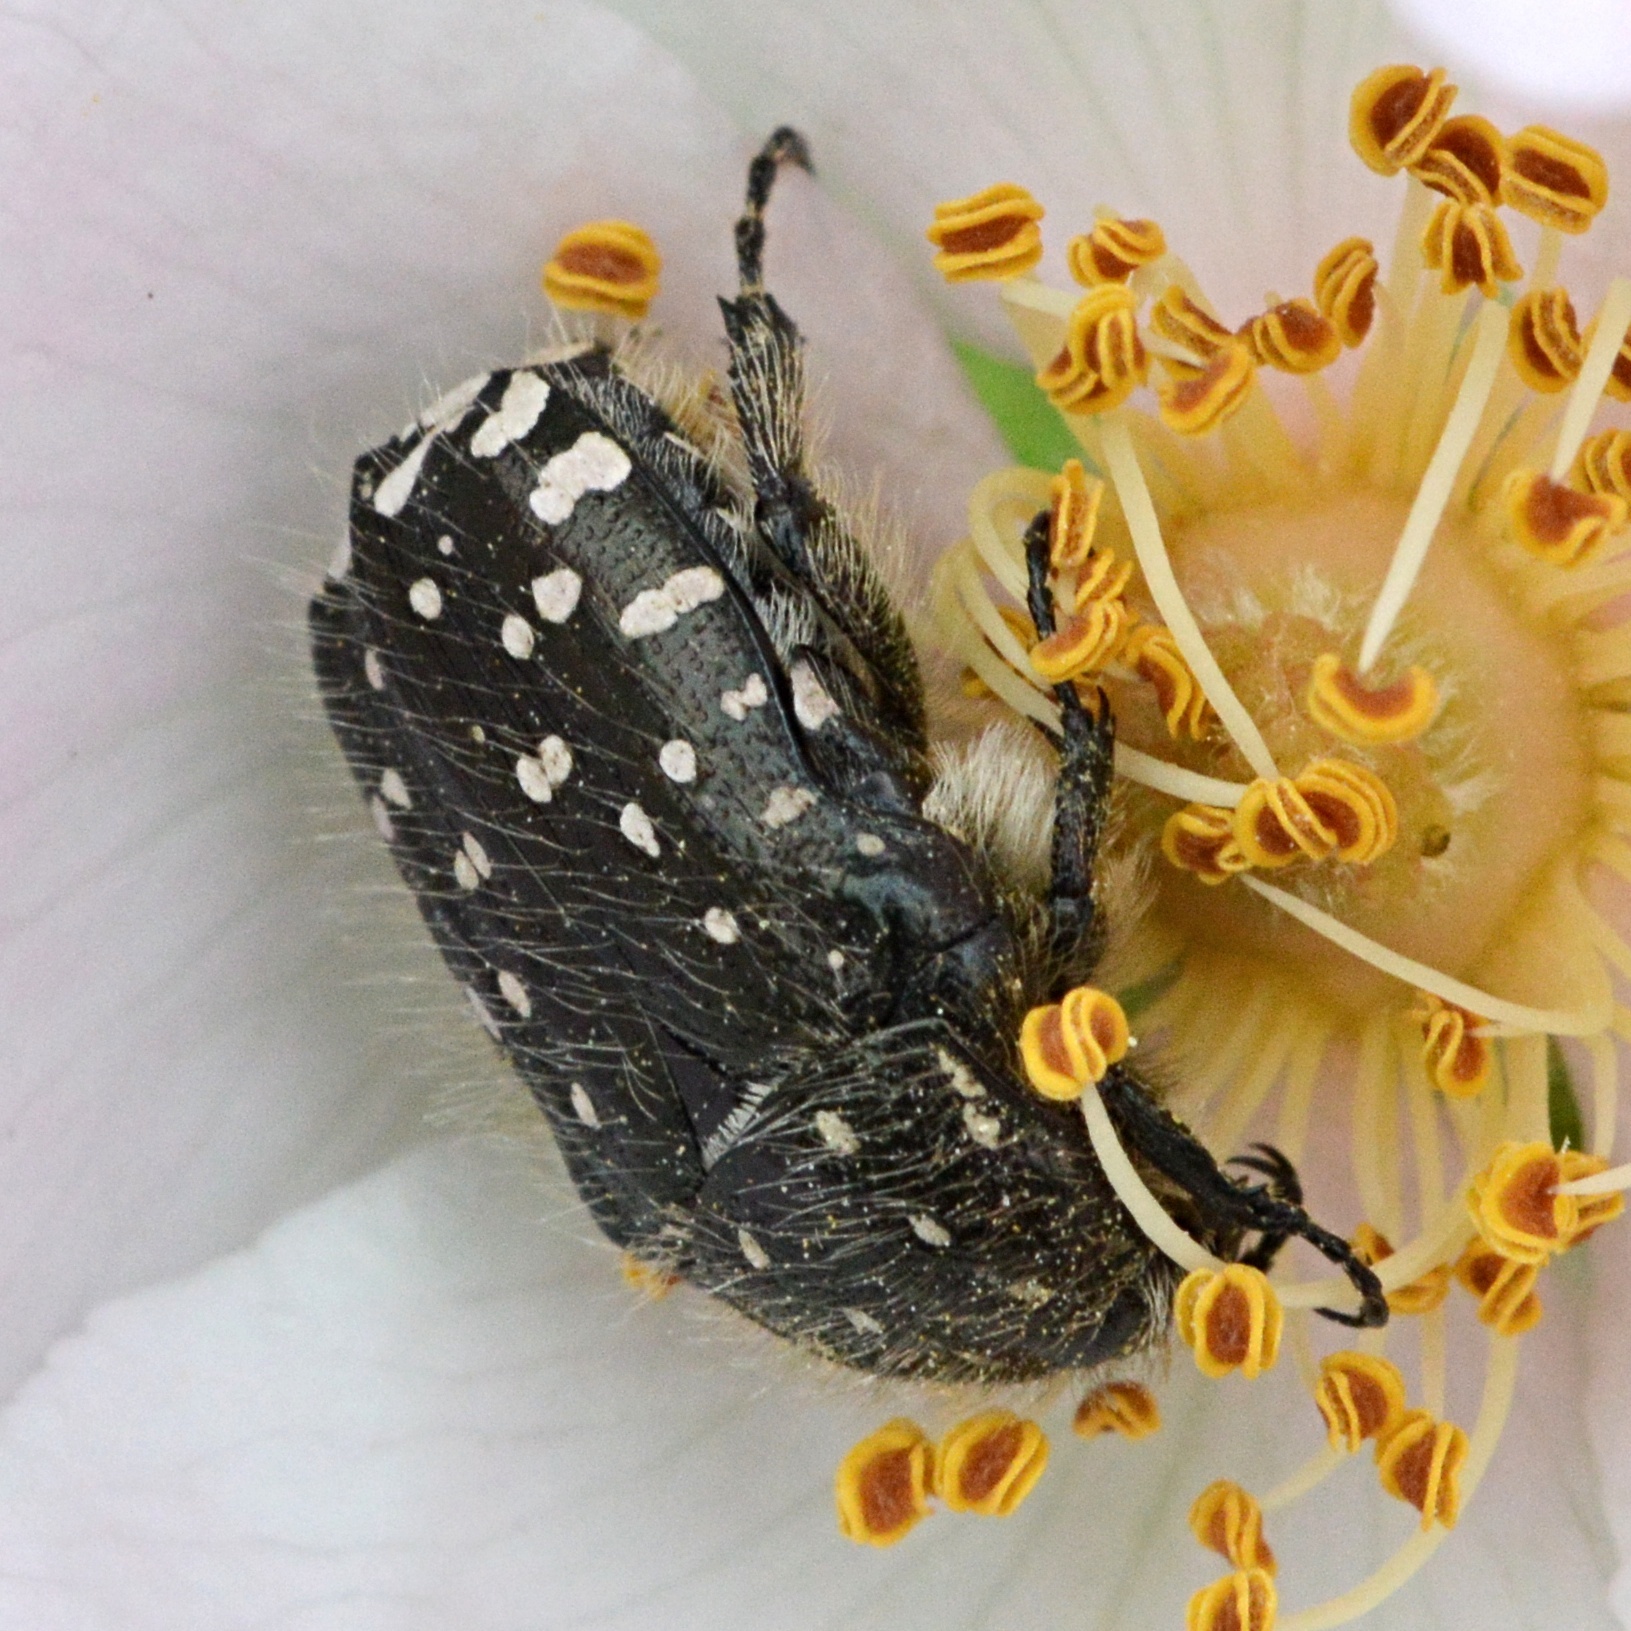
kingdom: Animalia
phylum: Arthropoda
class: Insecta
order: Coleoptera
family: Scarabaeidae
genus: Oxythyrea
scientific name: Oxythyrea funesta
